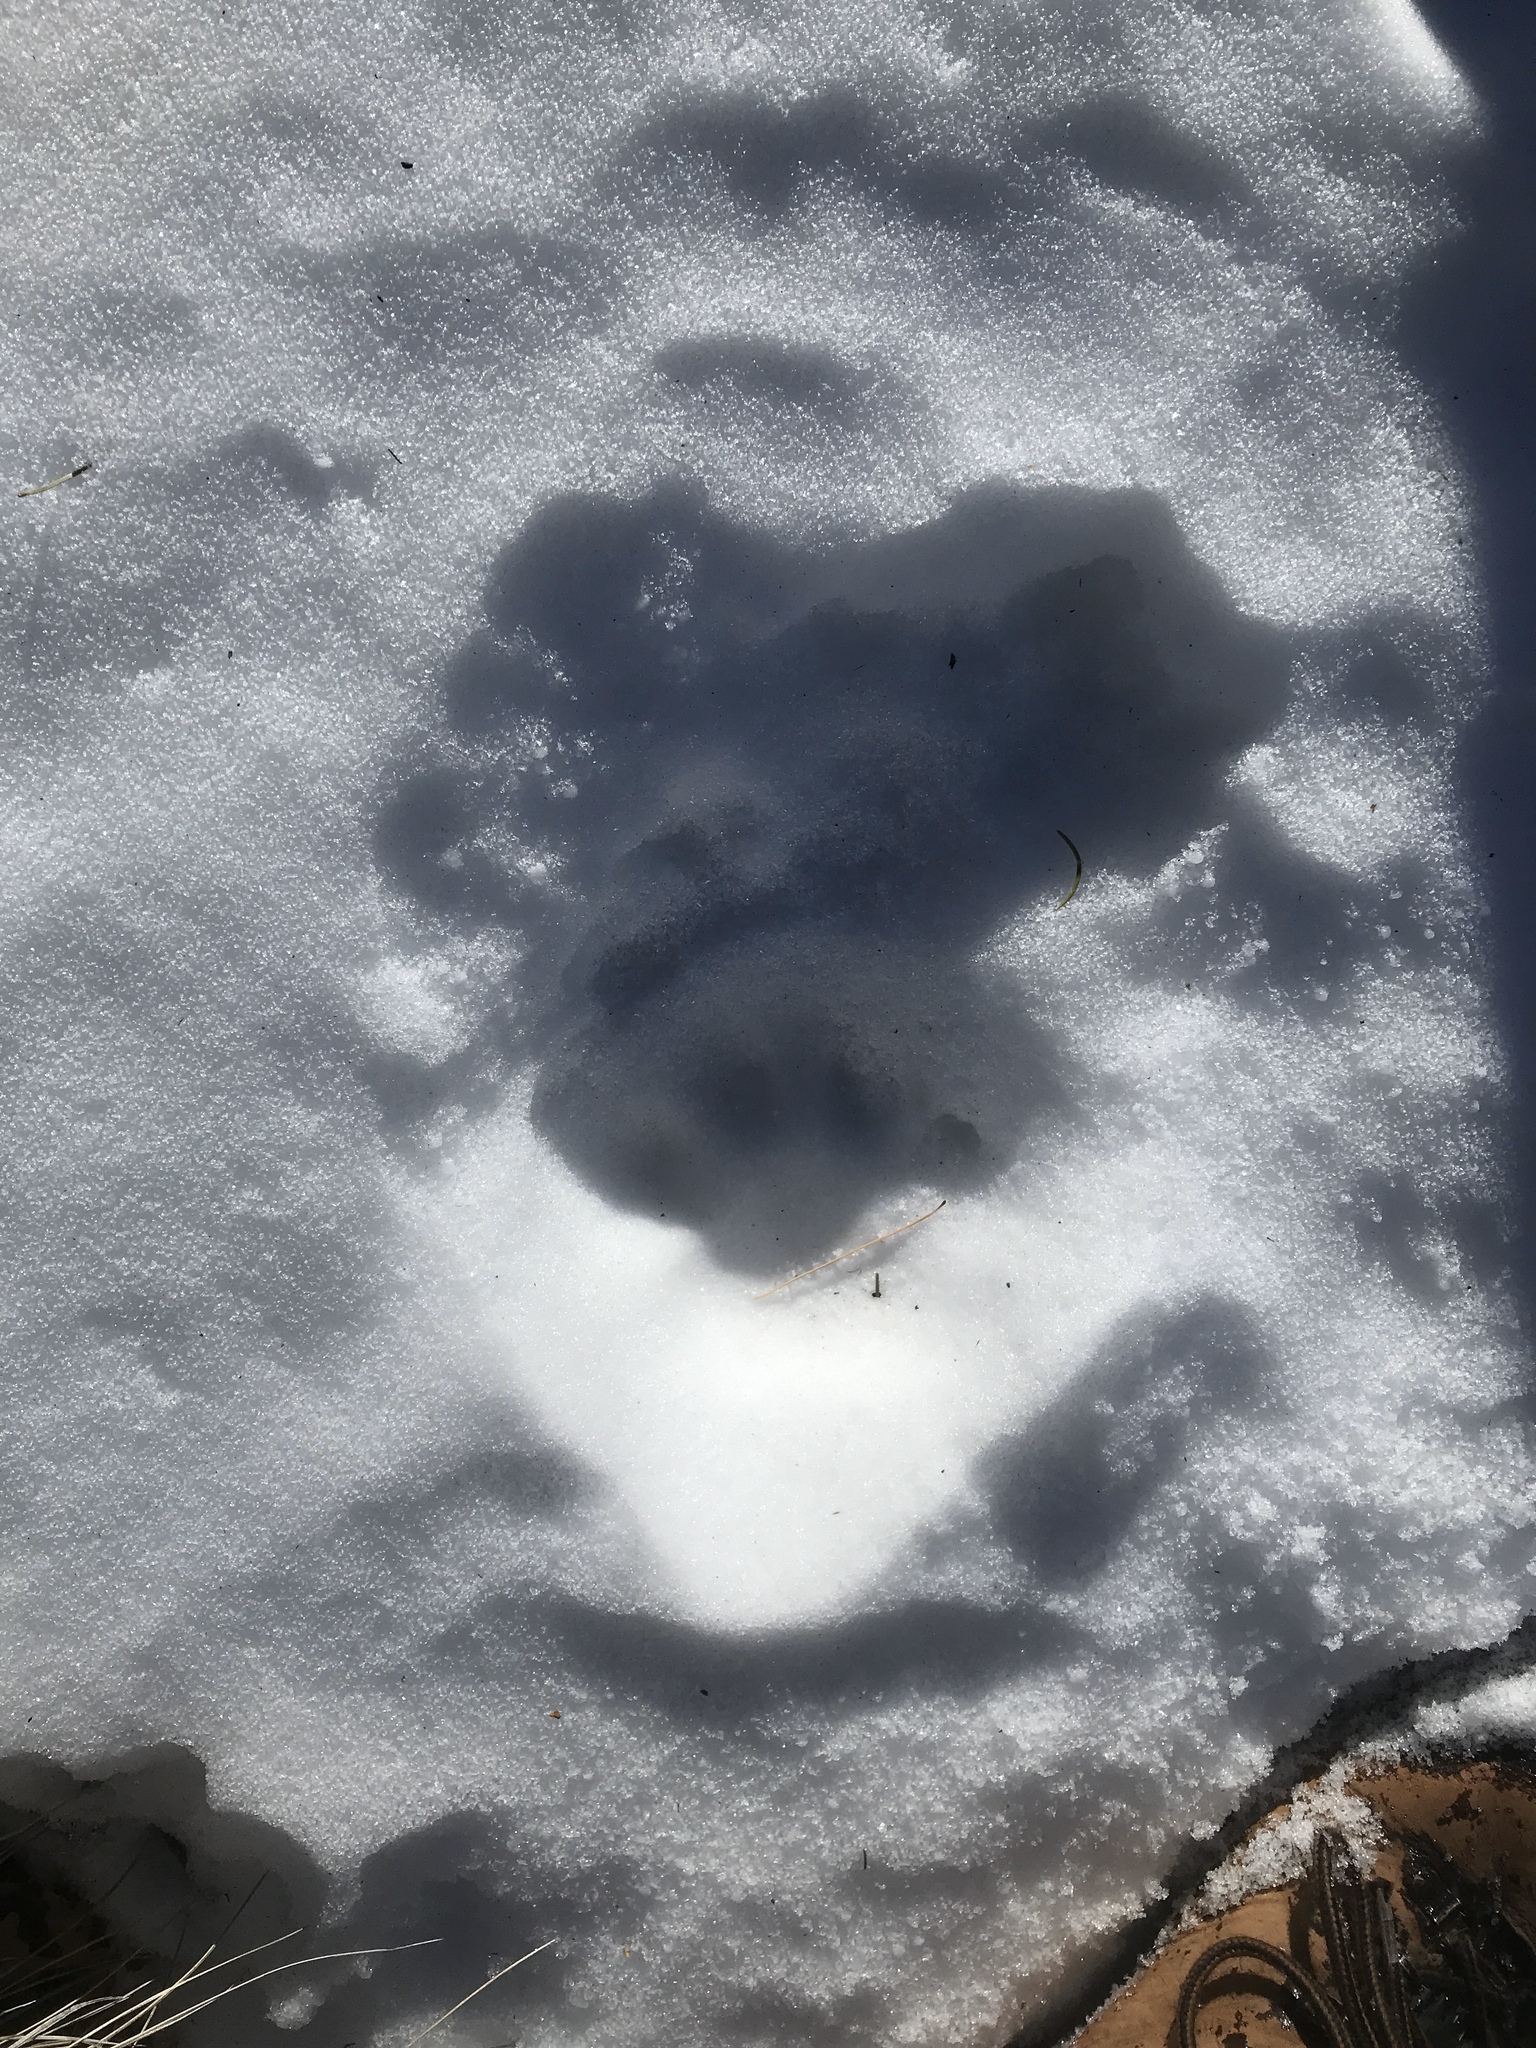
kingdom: Animalia
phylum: Chordata
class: Mammalia
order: Carnivora
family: Felidae
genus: Puma
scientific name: Puma concolor
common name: Puma
